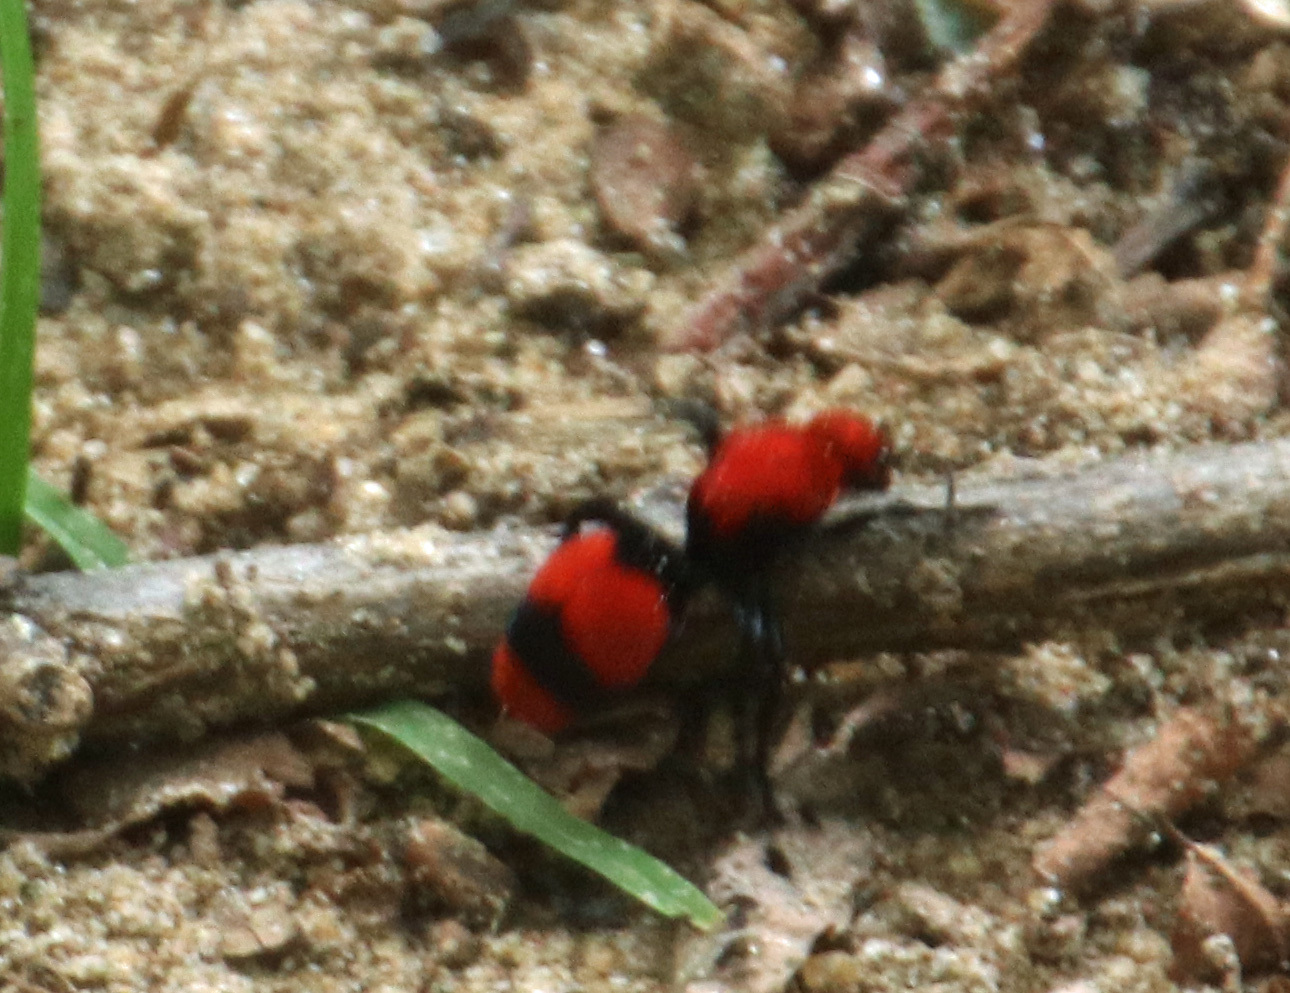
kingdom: Animalia
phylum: Arthropoda
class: Insecta
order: Hymenoptera
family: Mutillidae
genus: Dasymutilla
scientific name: Dasymutilla occidentalis
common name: Common eastern velvet ant
